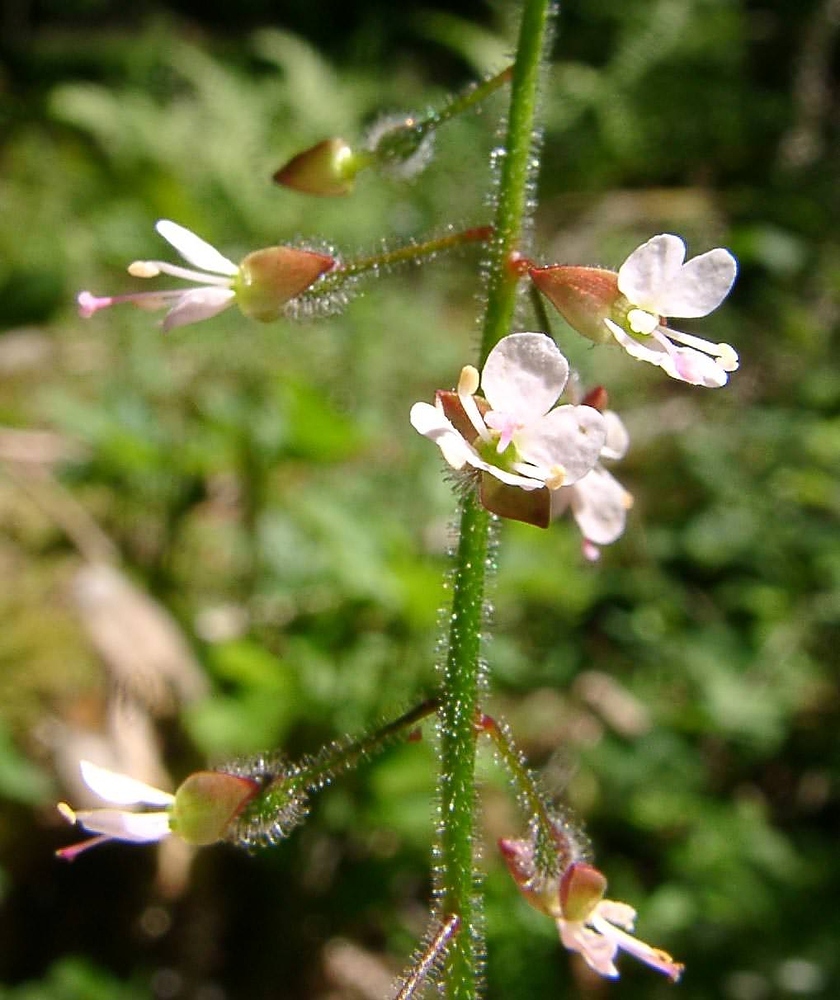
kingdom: Plantae
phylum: Tracheophyta
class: Magnoliopsida
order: Myrtales
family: Onagraceae
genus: Circaea
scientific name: Circaea lutetiana
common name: Enchanter's-nightshade
